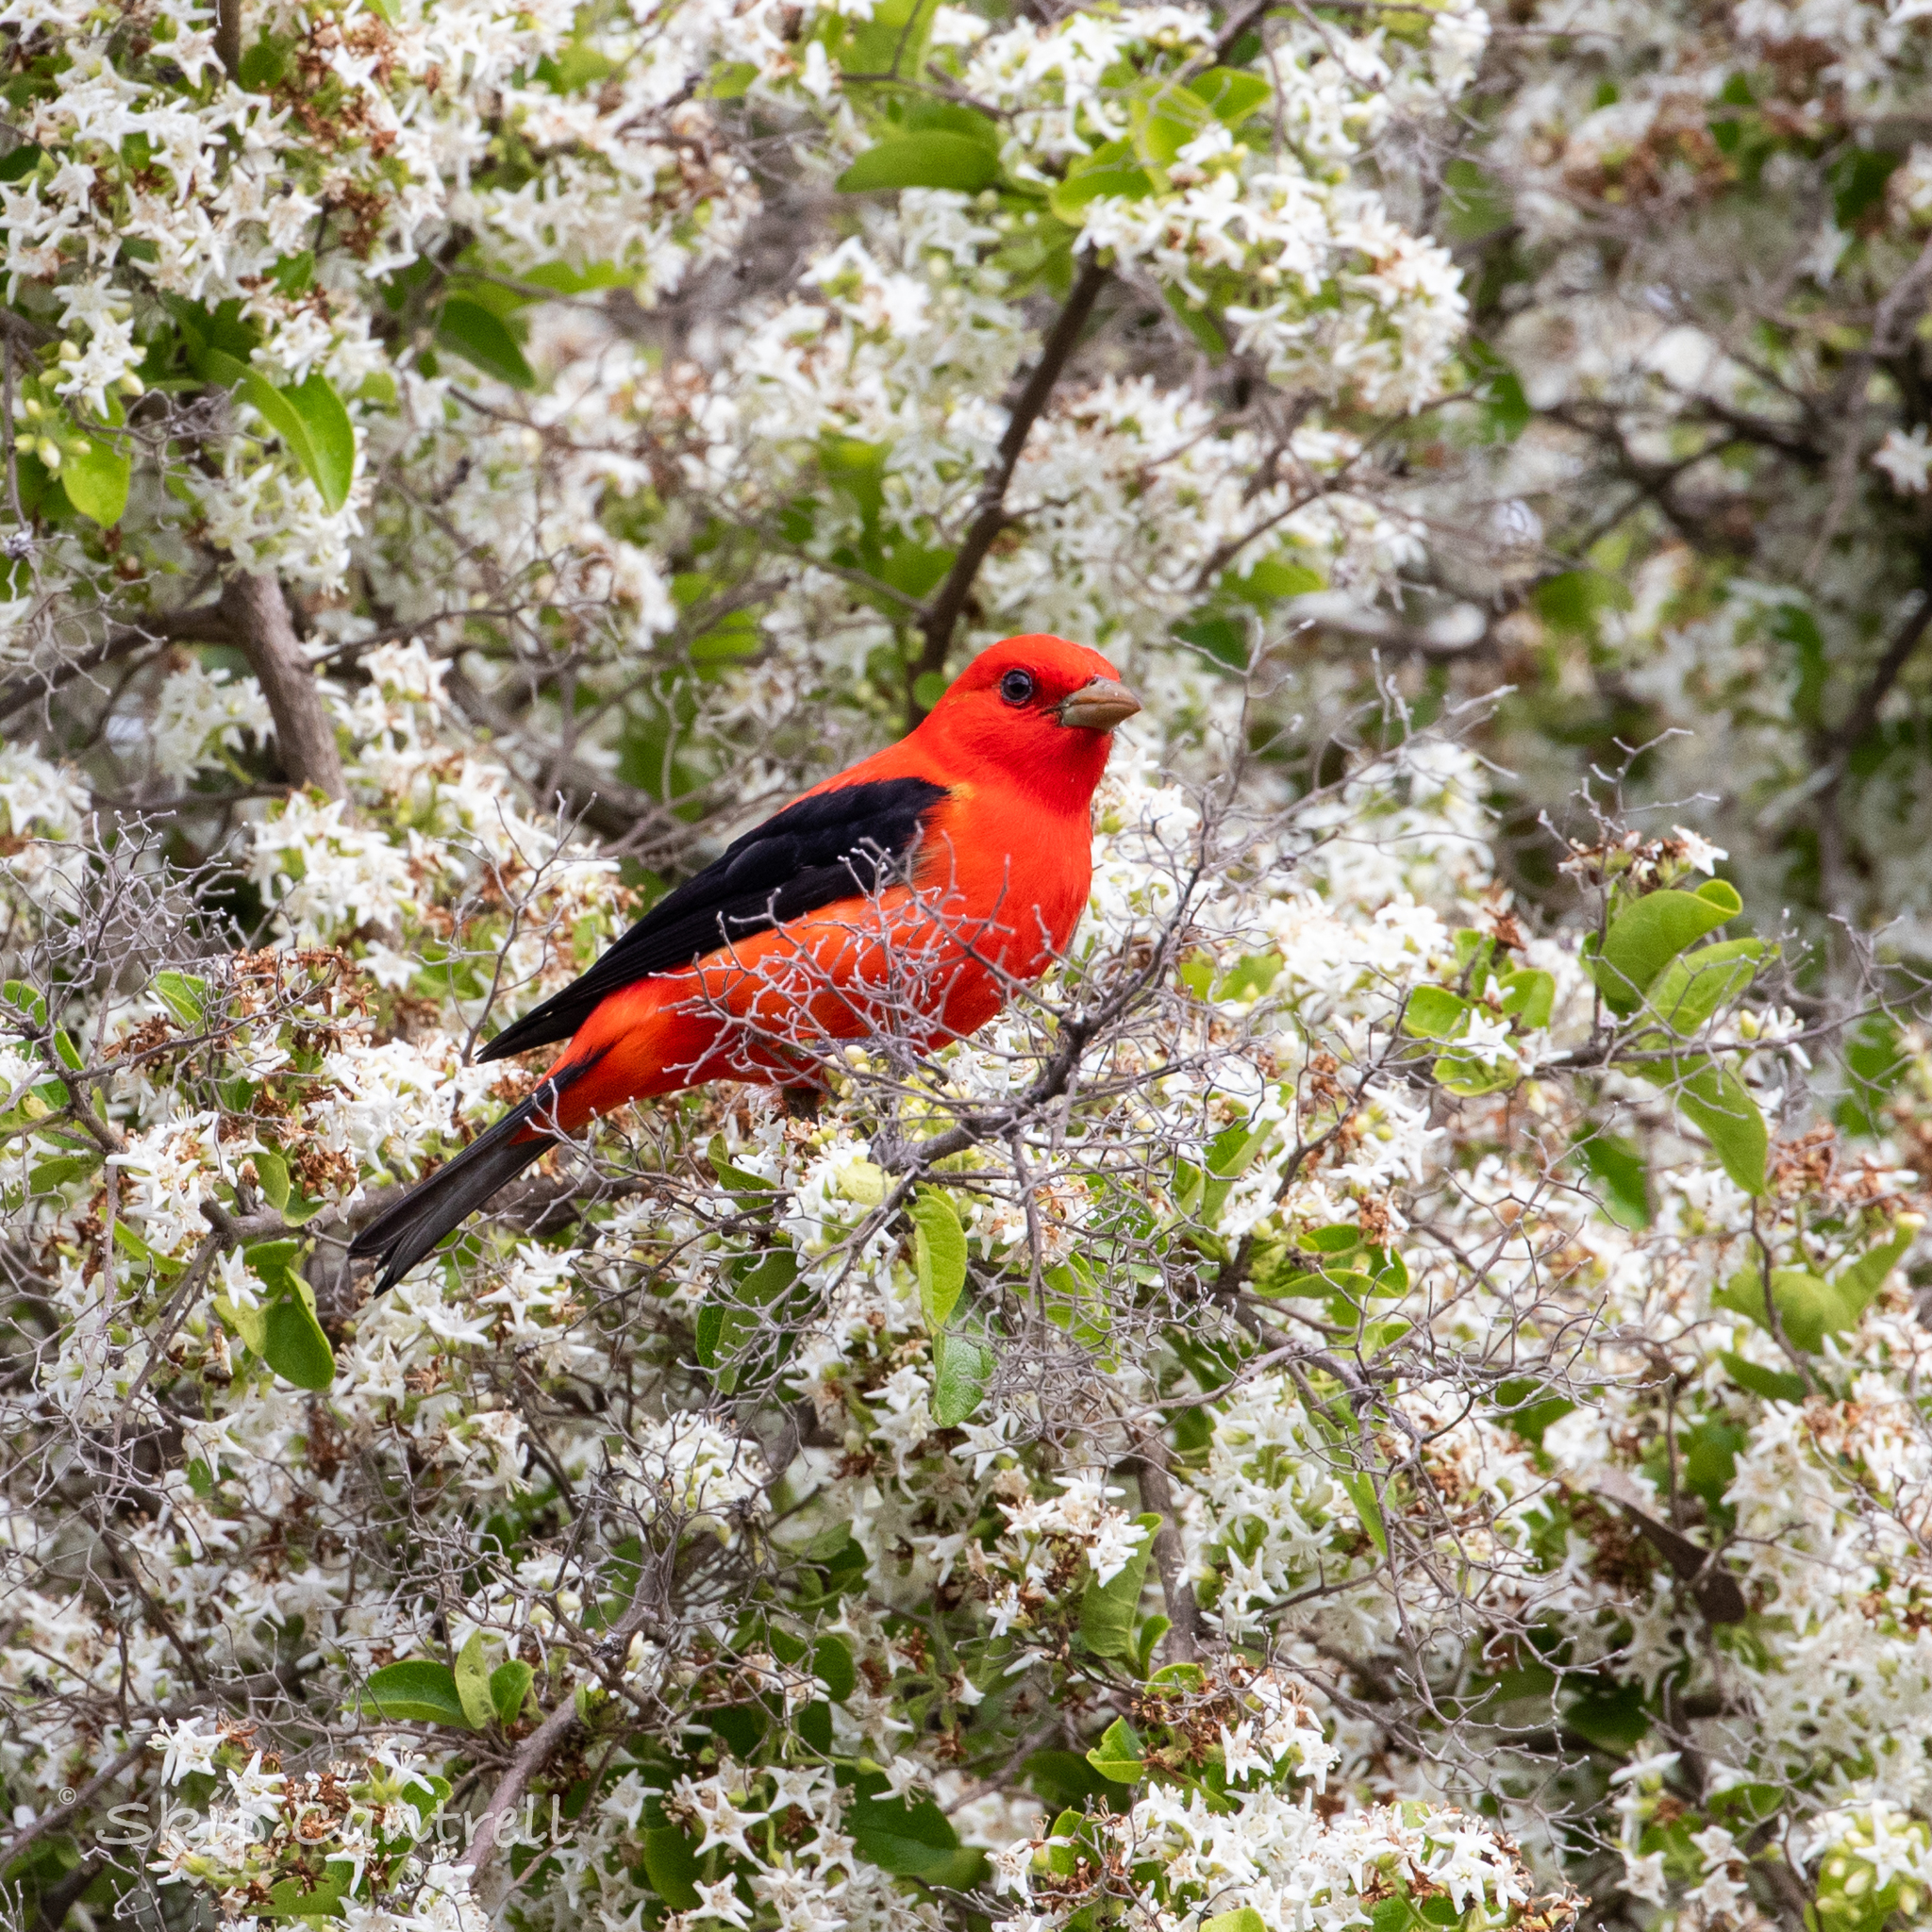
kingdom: Animalia
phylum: Chordata
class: Aves
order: Passeriformes
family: Cardinalidae
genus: Piranga
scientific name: Piranga olivacea
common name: Scarlet tanager
